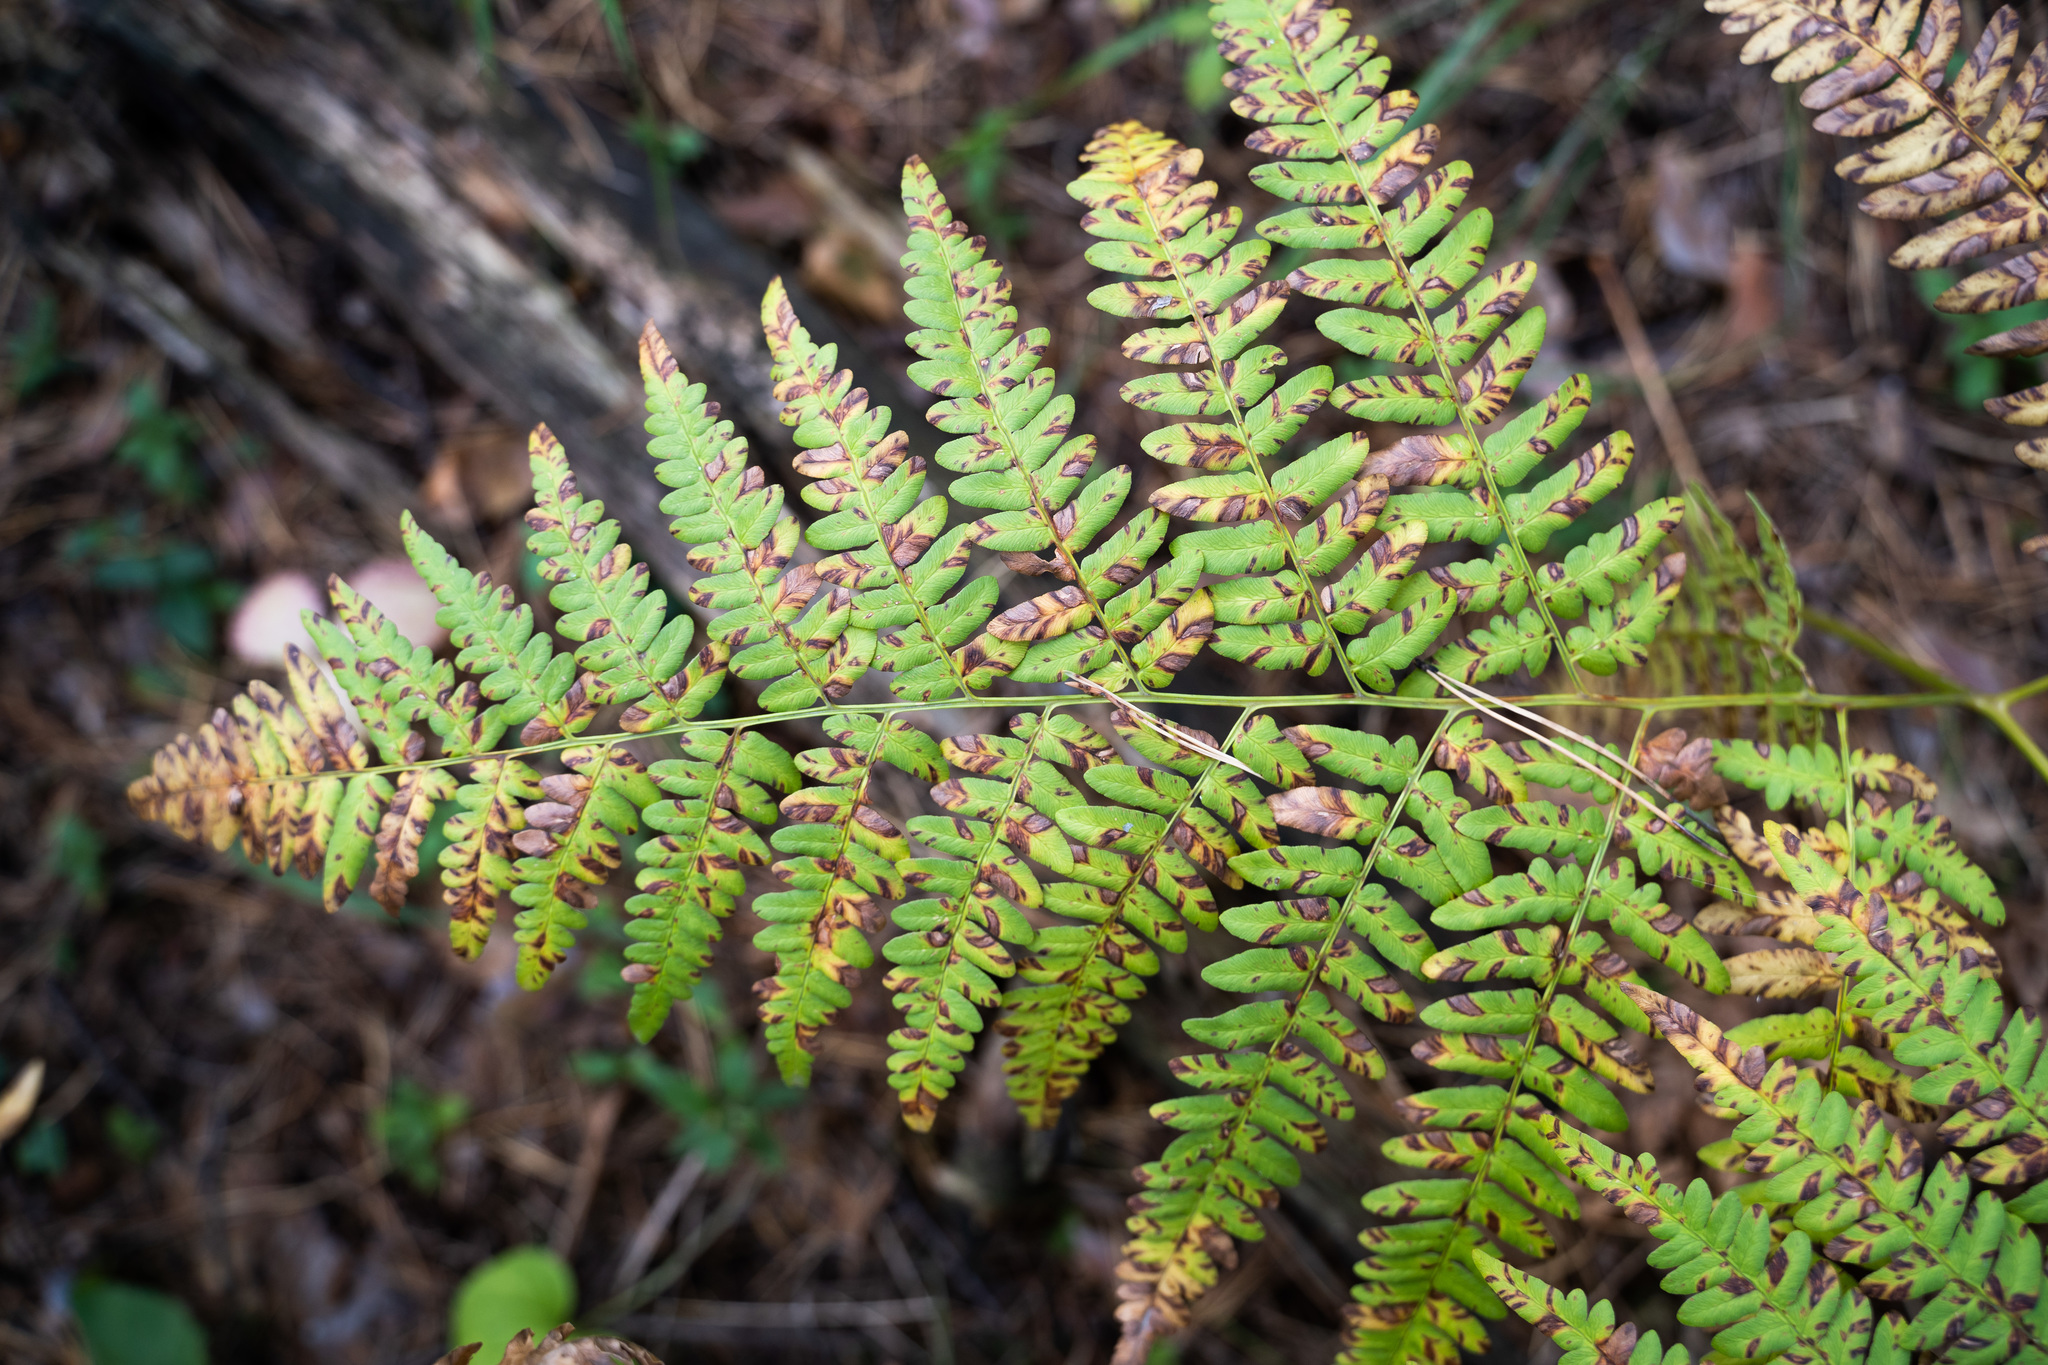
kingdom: Plantae
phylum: Tracheophyta
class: Polypodiopsida
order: Polypodiales
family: Dennstaedtiaceae
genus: Pteridium
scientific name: Pteridium aquilinum
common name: Bracken
